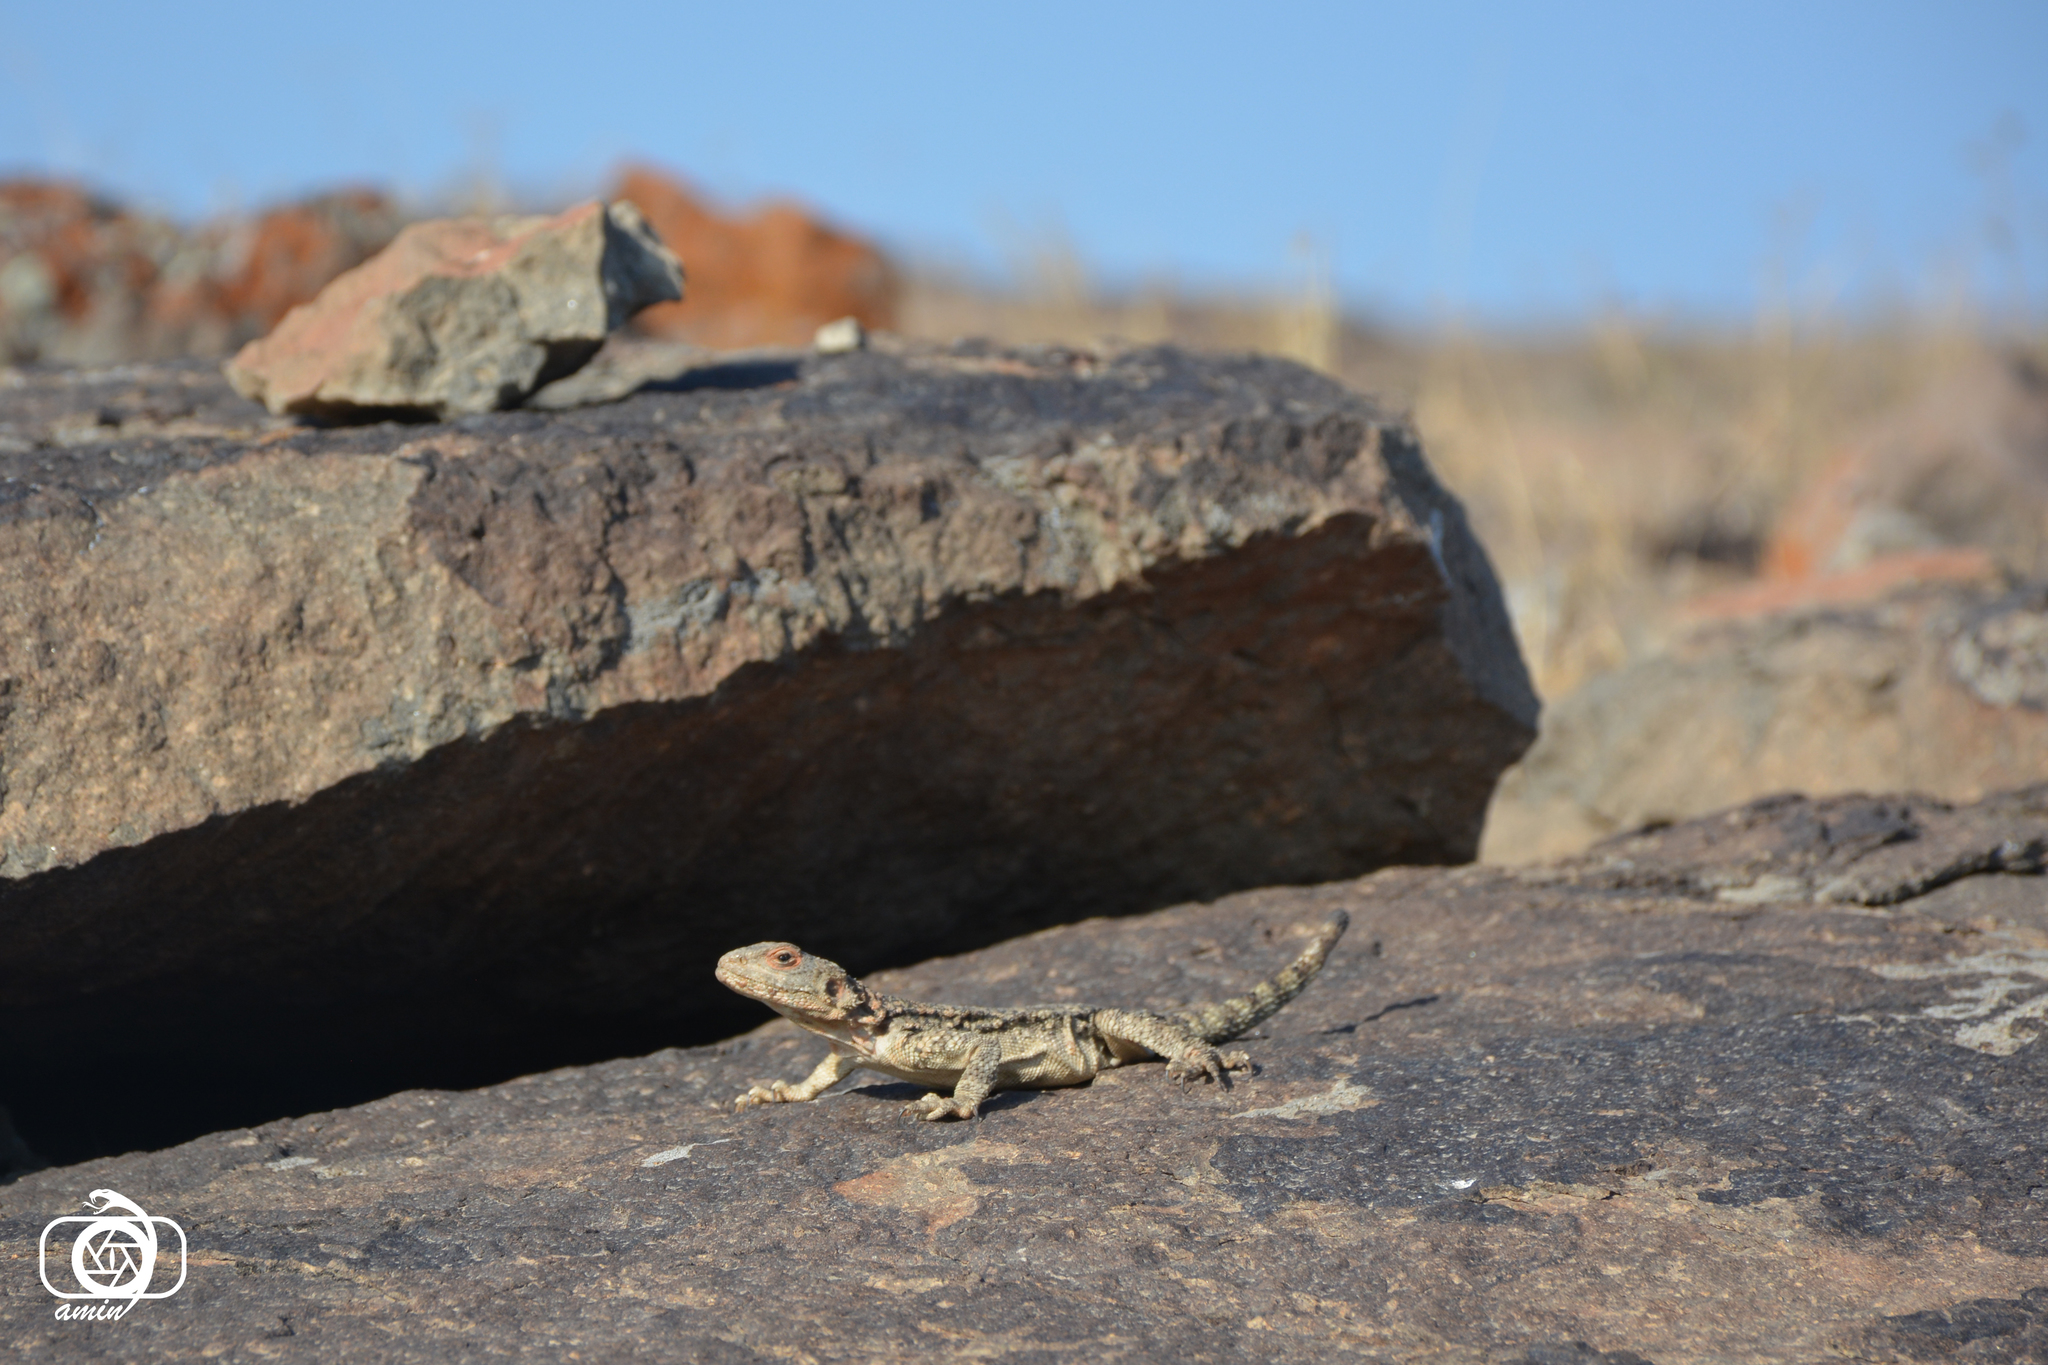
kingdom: Animalia
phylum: Chordata
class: Squamata
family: Agamidae
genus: Paralaudakia
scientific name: Paralaudakia caucasia
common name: Caucasian agama
